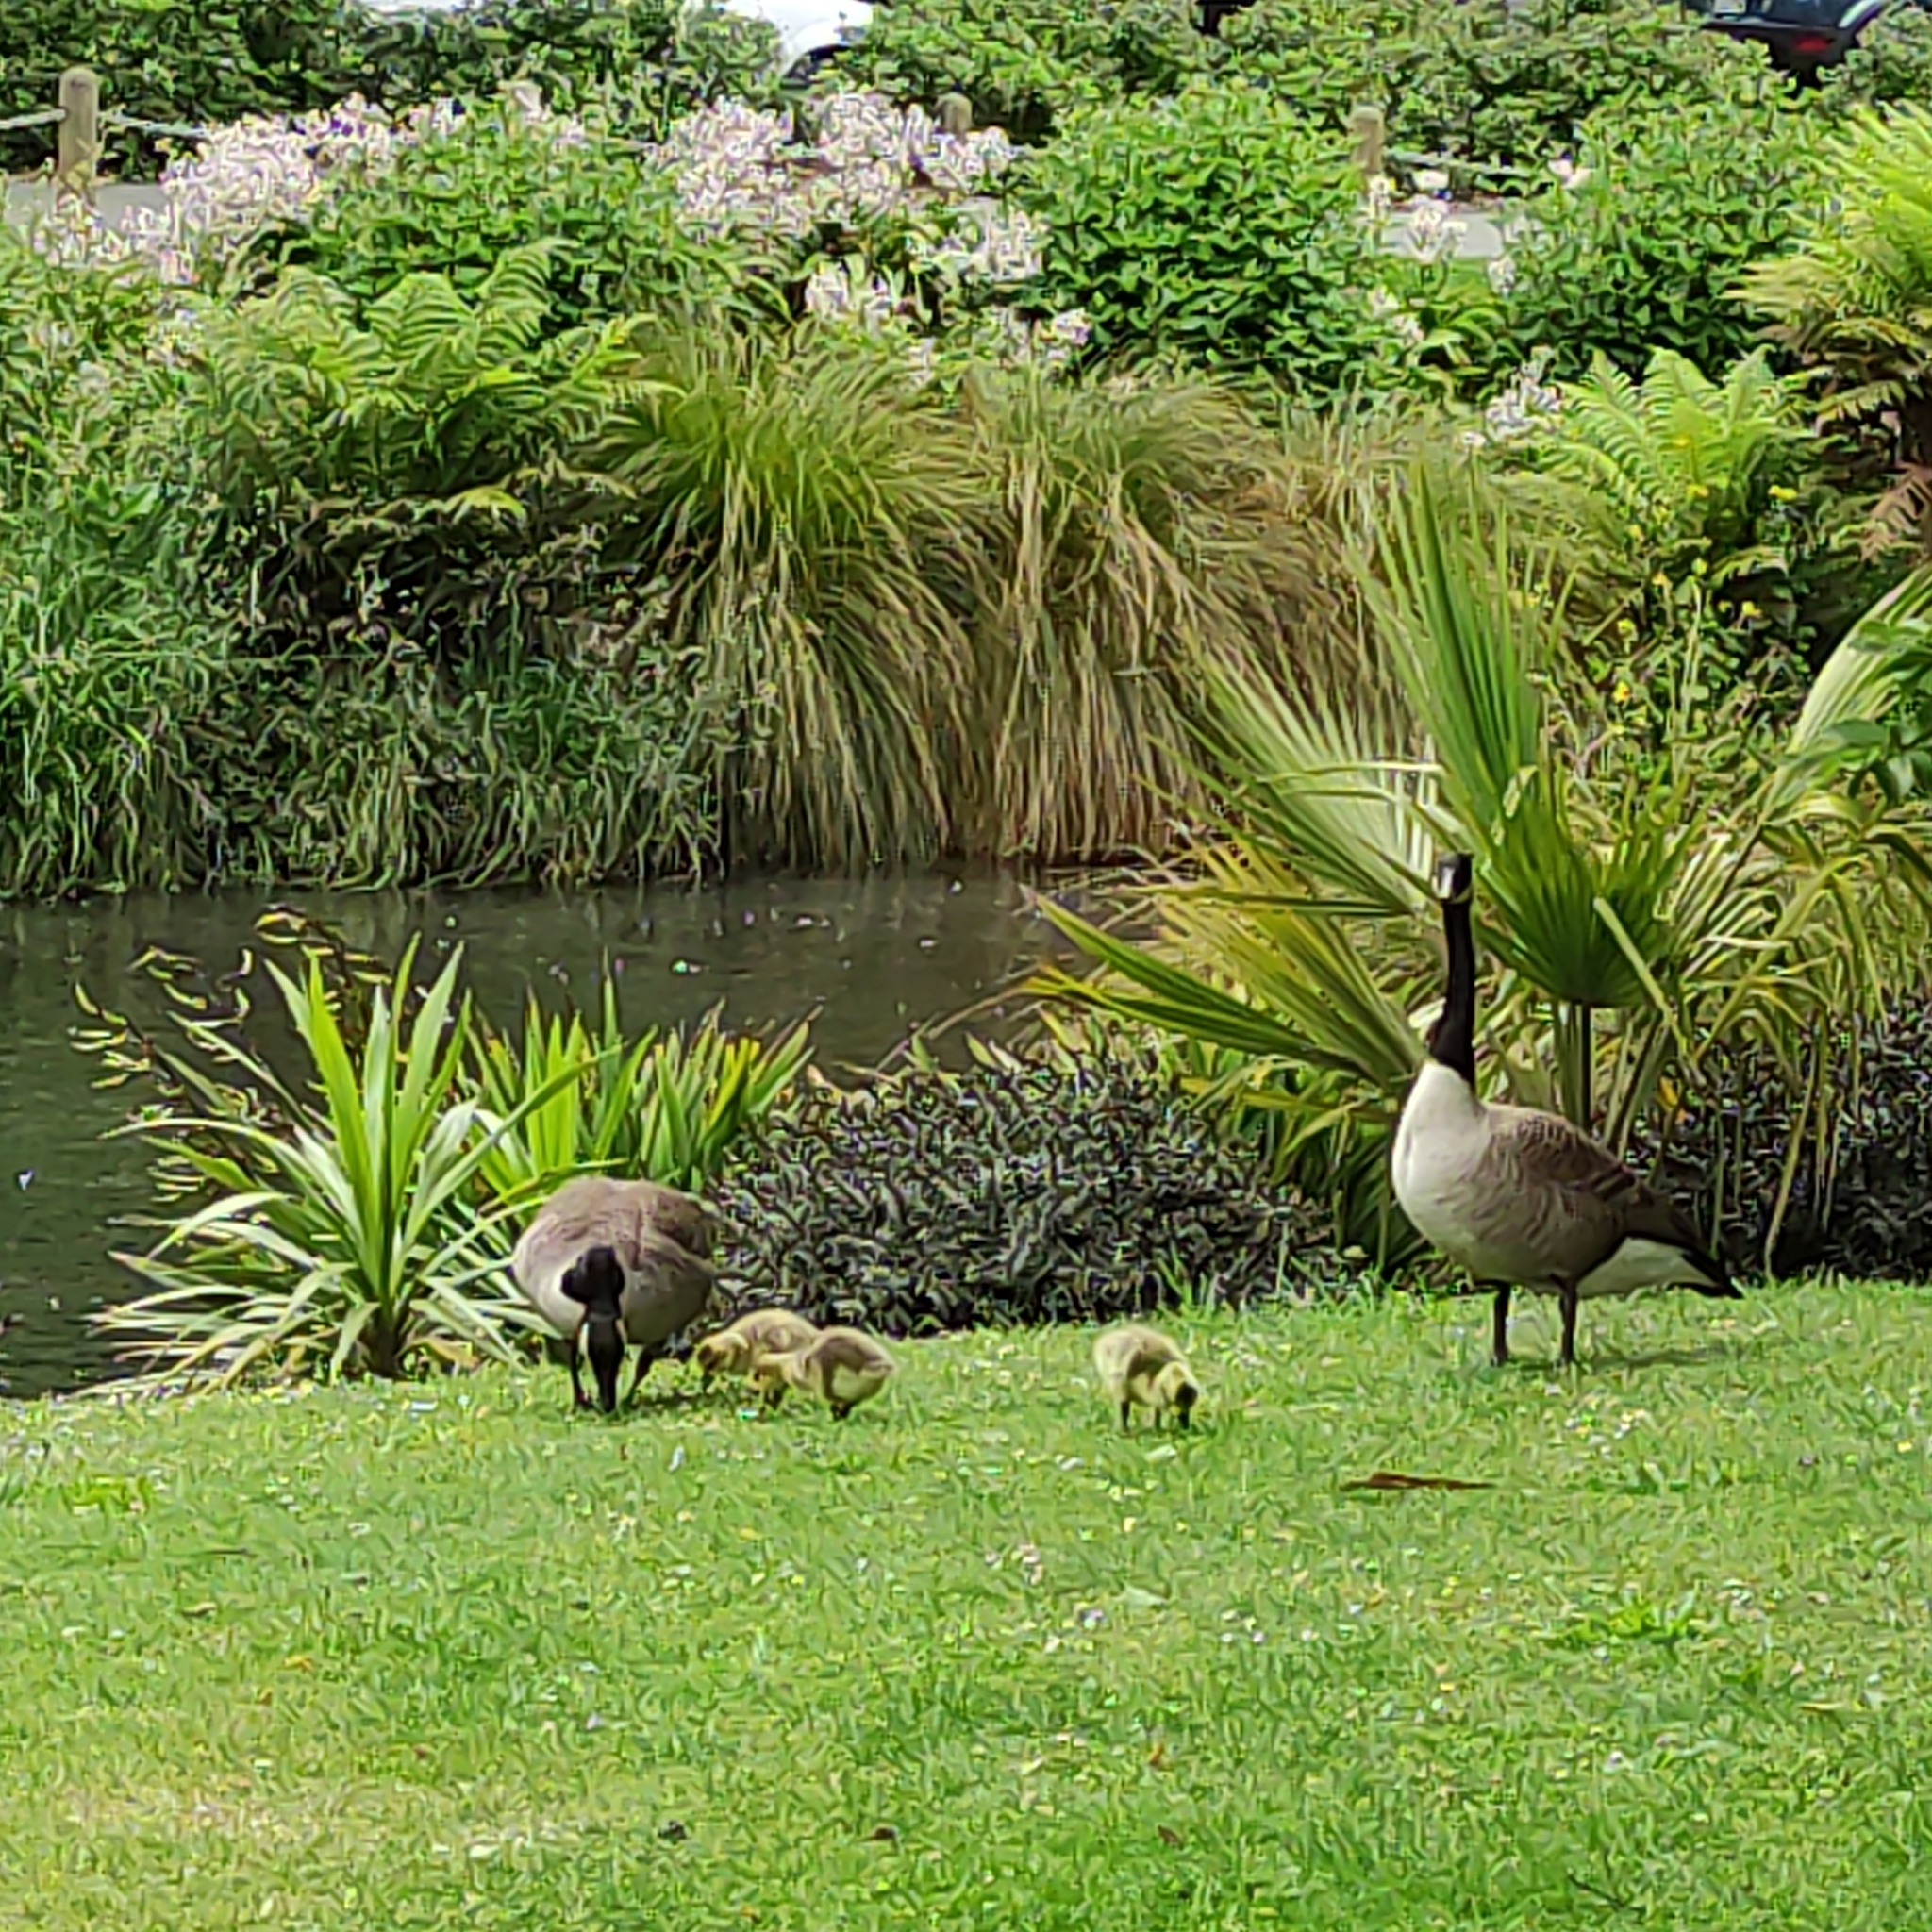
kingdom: Animalia
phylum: Chordata
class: Aves
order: Anseriformes
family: Anatidae
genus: Branta
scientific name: Branta canadensis
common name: Canada goose
